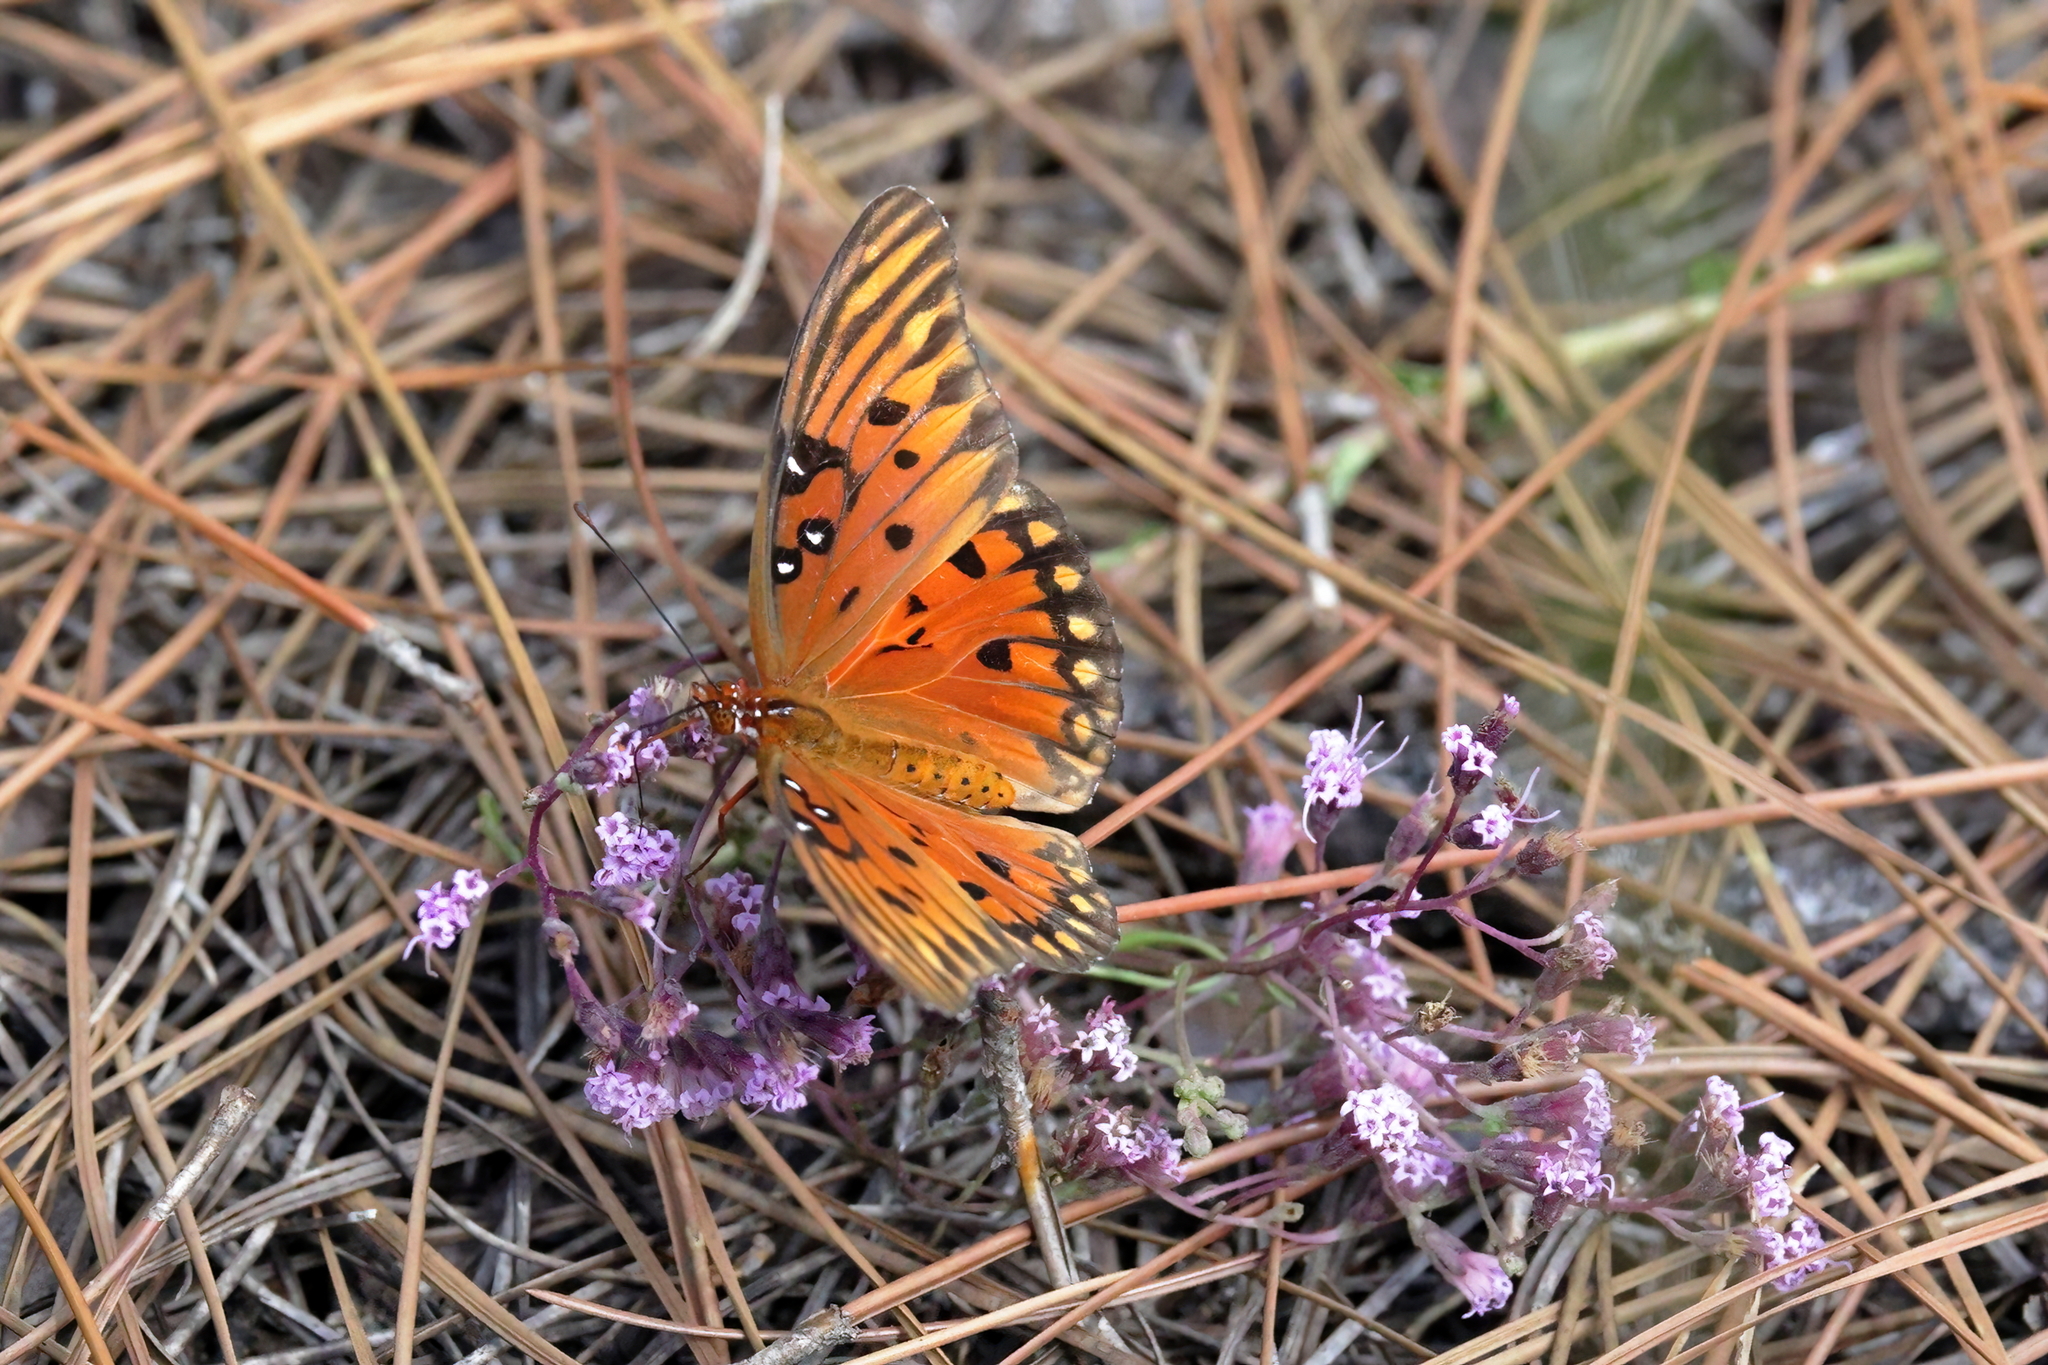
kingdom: Animalia
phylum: Arthropoda
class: Insecta
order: Lepidoptera
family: Nymphalidae
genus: Dione
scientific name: Dione vanillae
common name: Gulf fritillary
